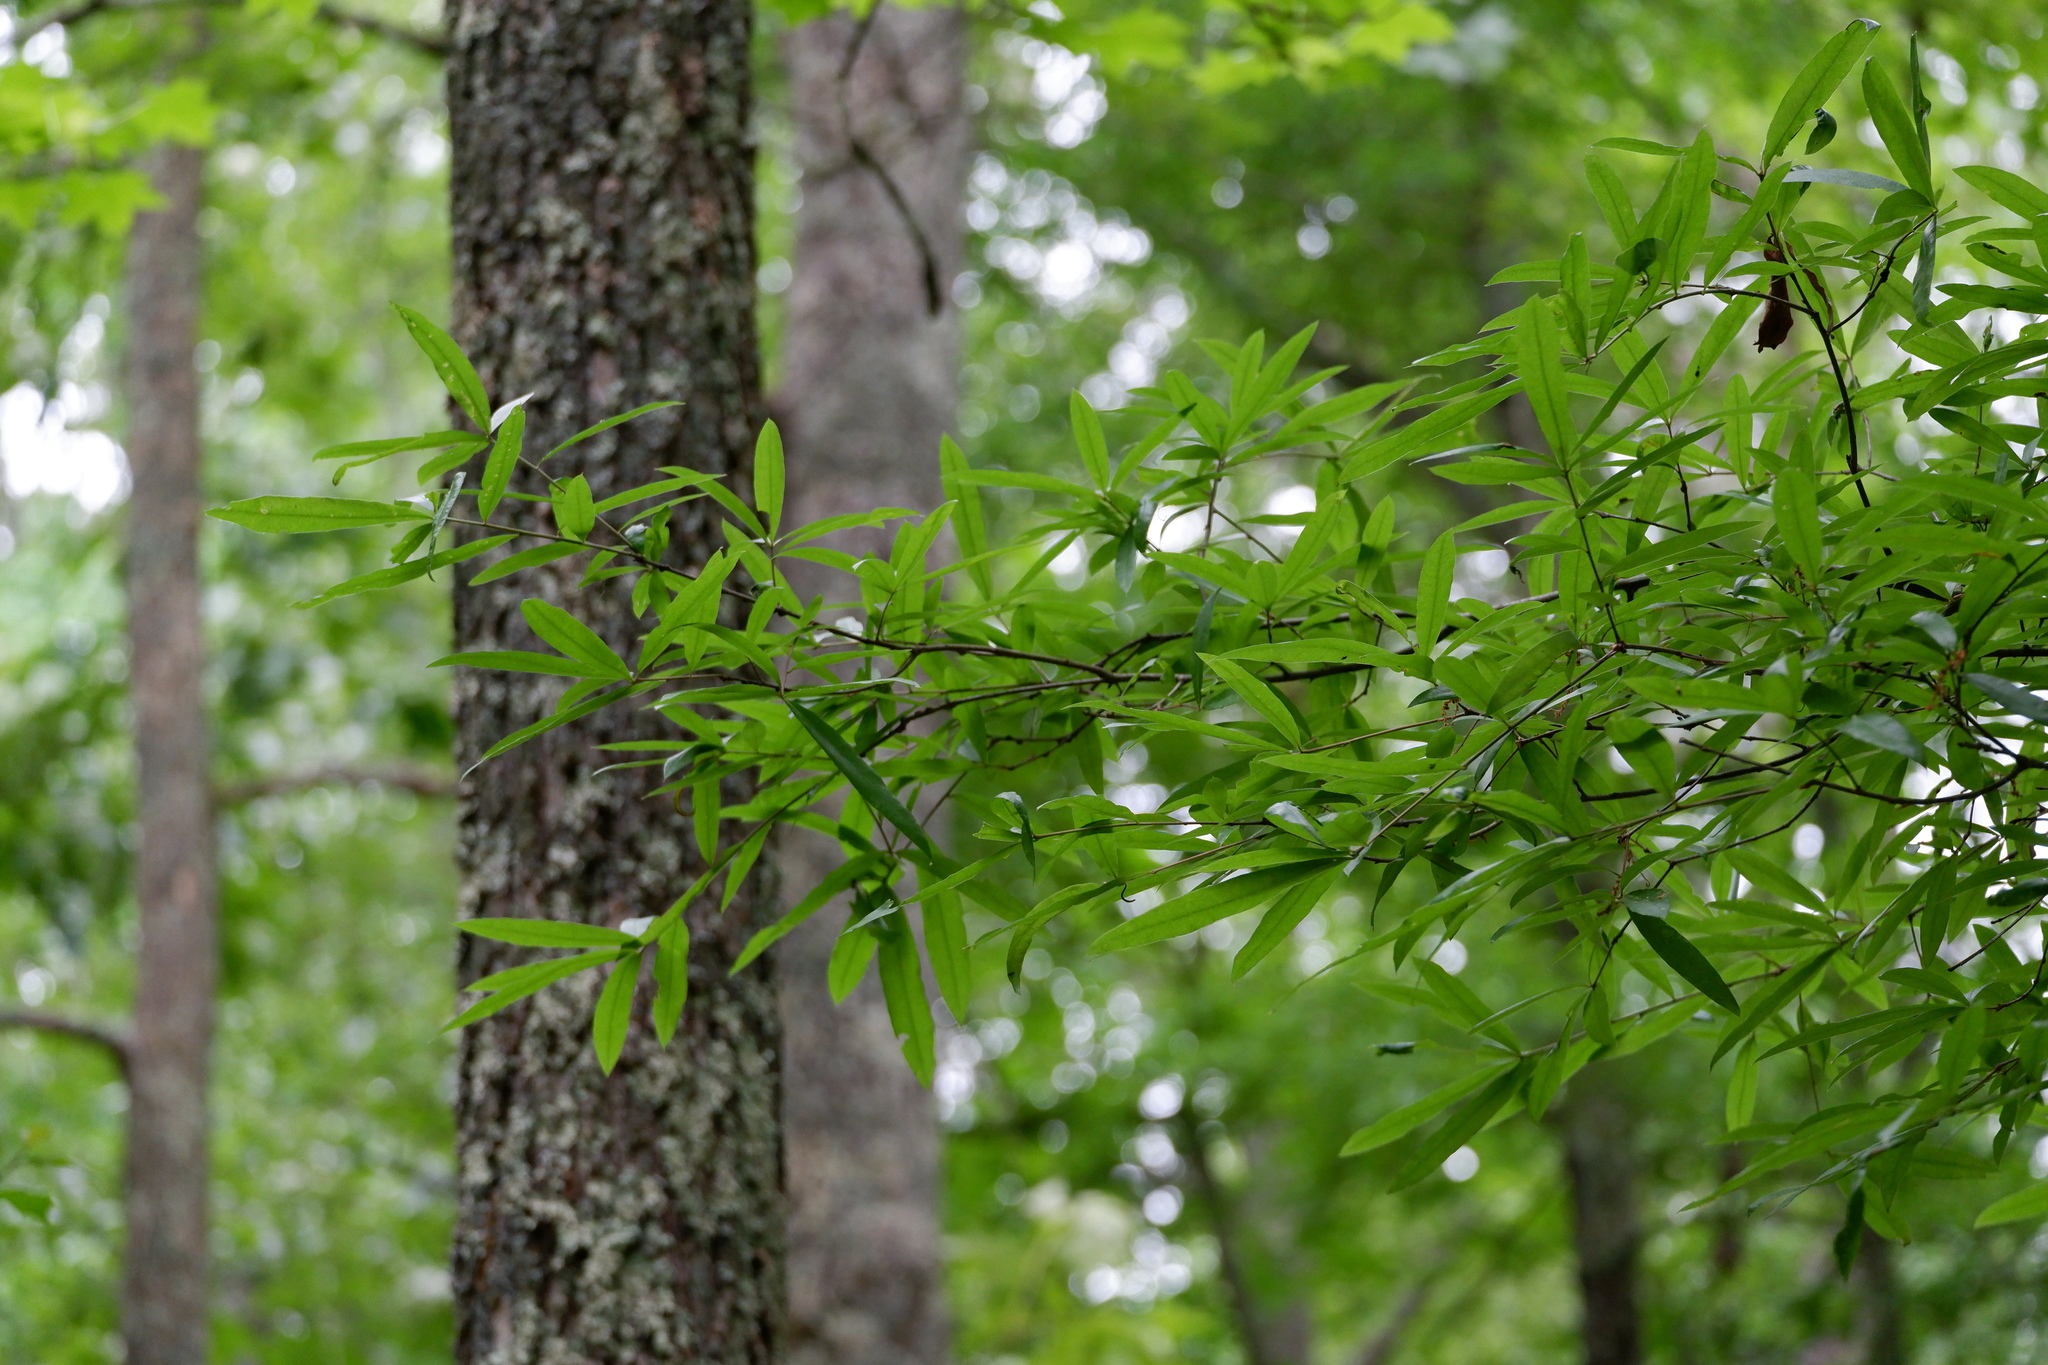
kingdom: Plantae
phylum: Tracheophyta
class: Magnoliopsida
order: Fagales
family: Fagaceae
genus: Quercus
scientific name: Quercus phellos
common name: Willow oak
